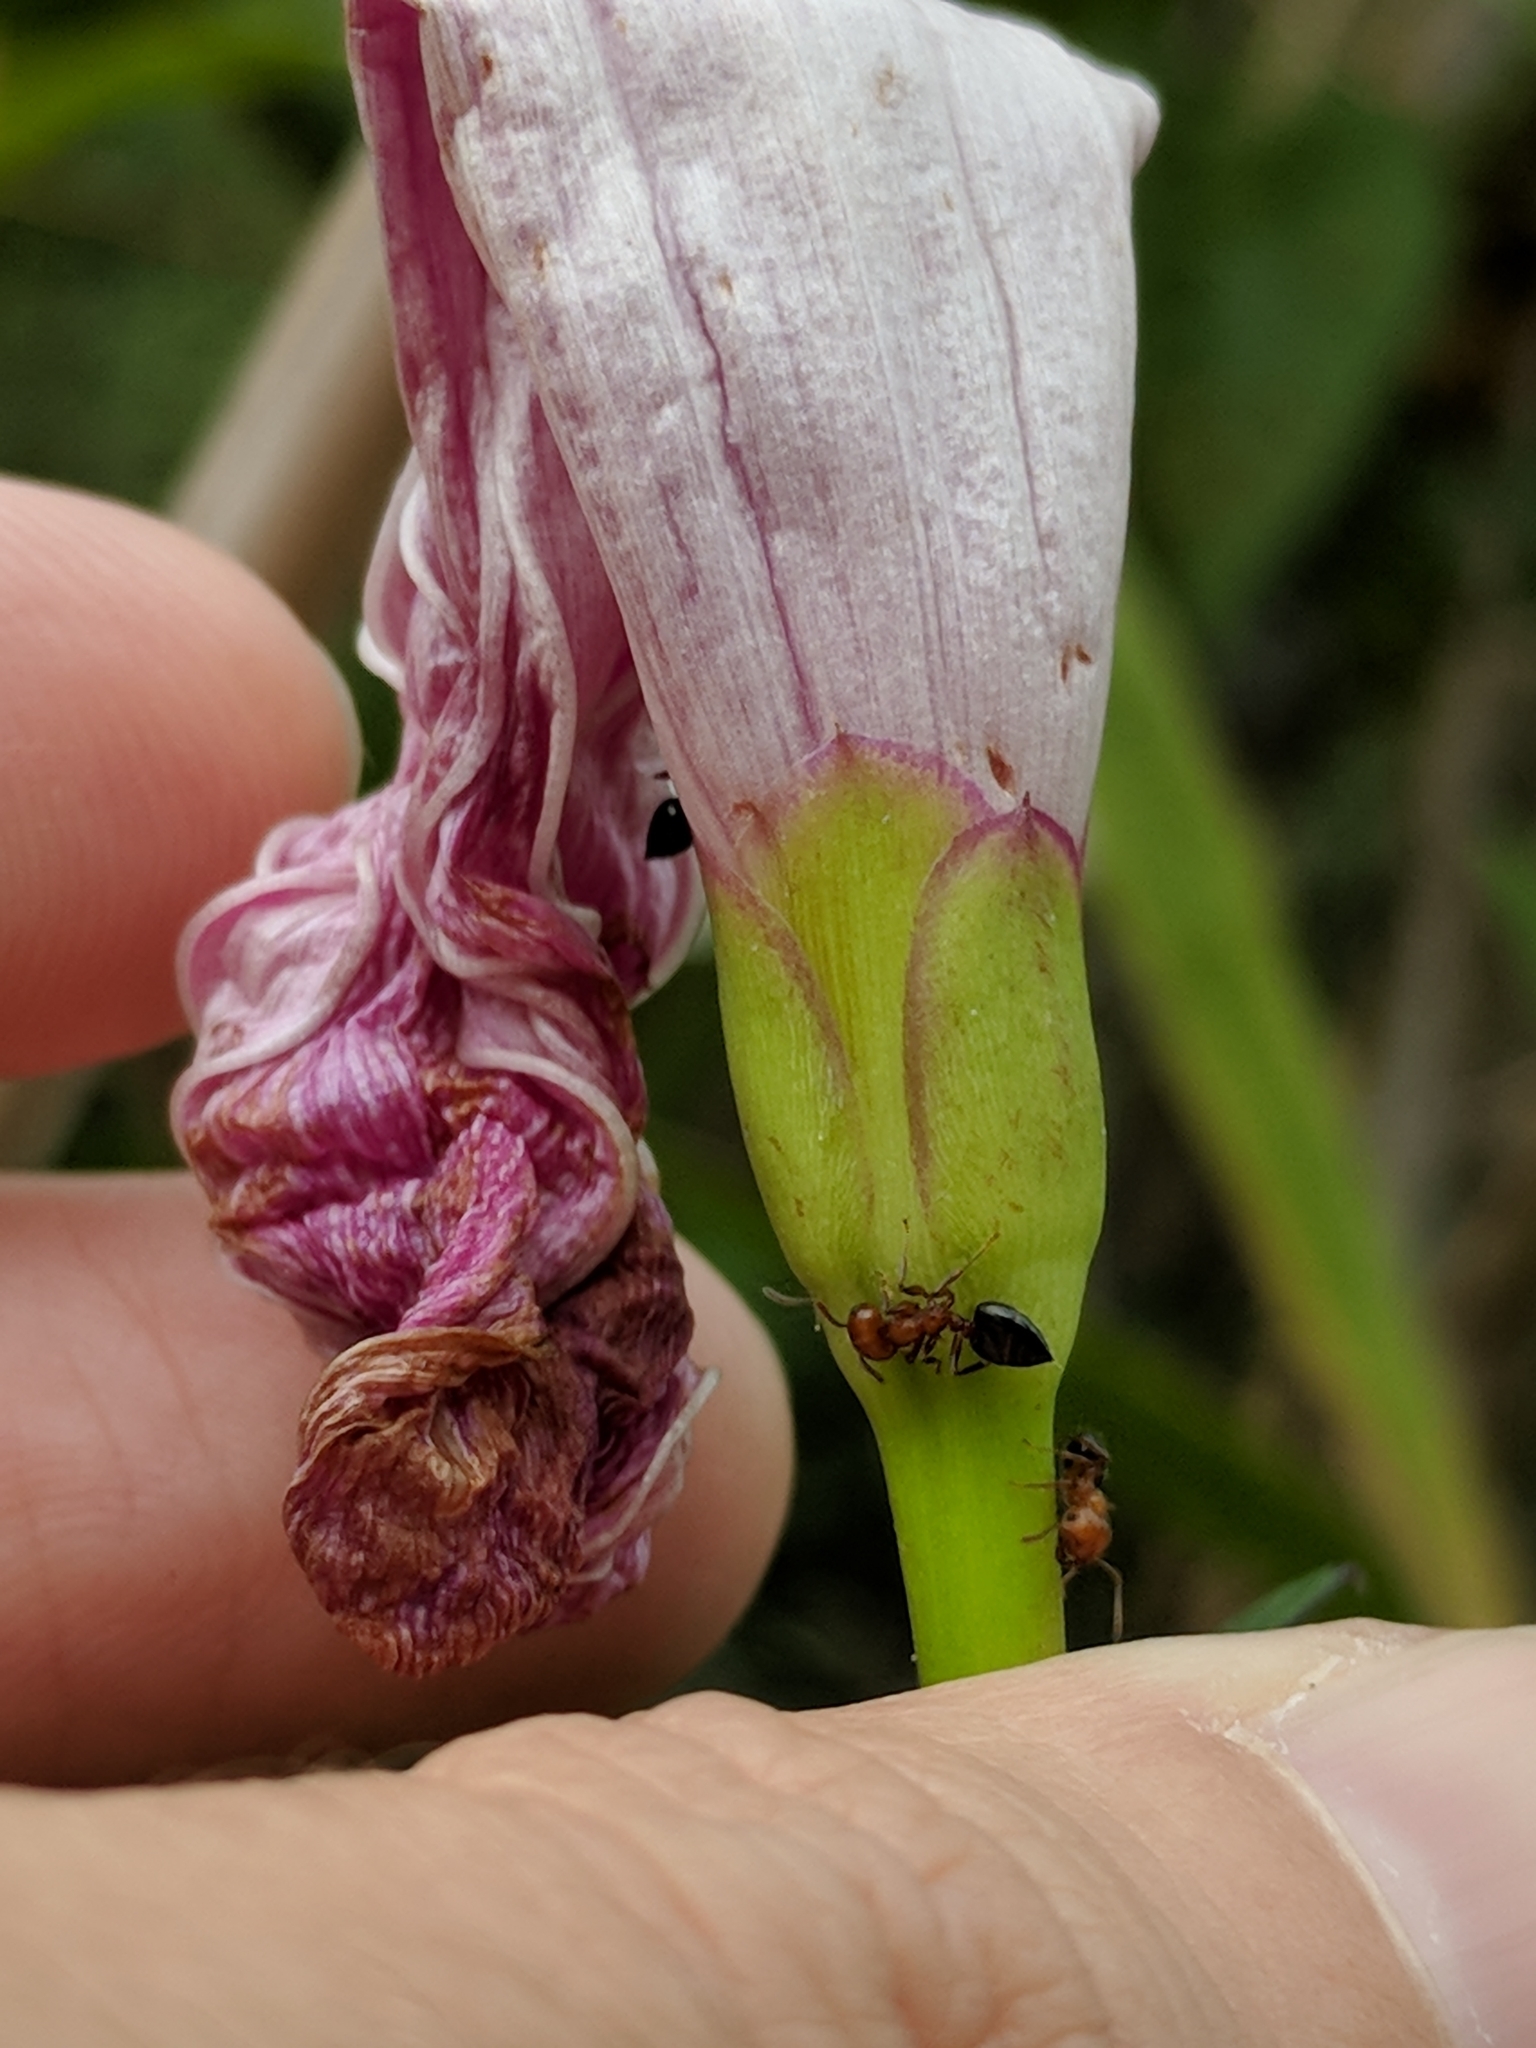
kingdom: Animalia
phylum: Arthropoda
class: Insecta
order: Hymenoptera
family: Formicidae
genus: Crematogaster
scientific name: Crematogaster laeviuscula
